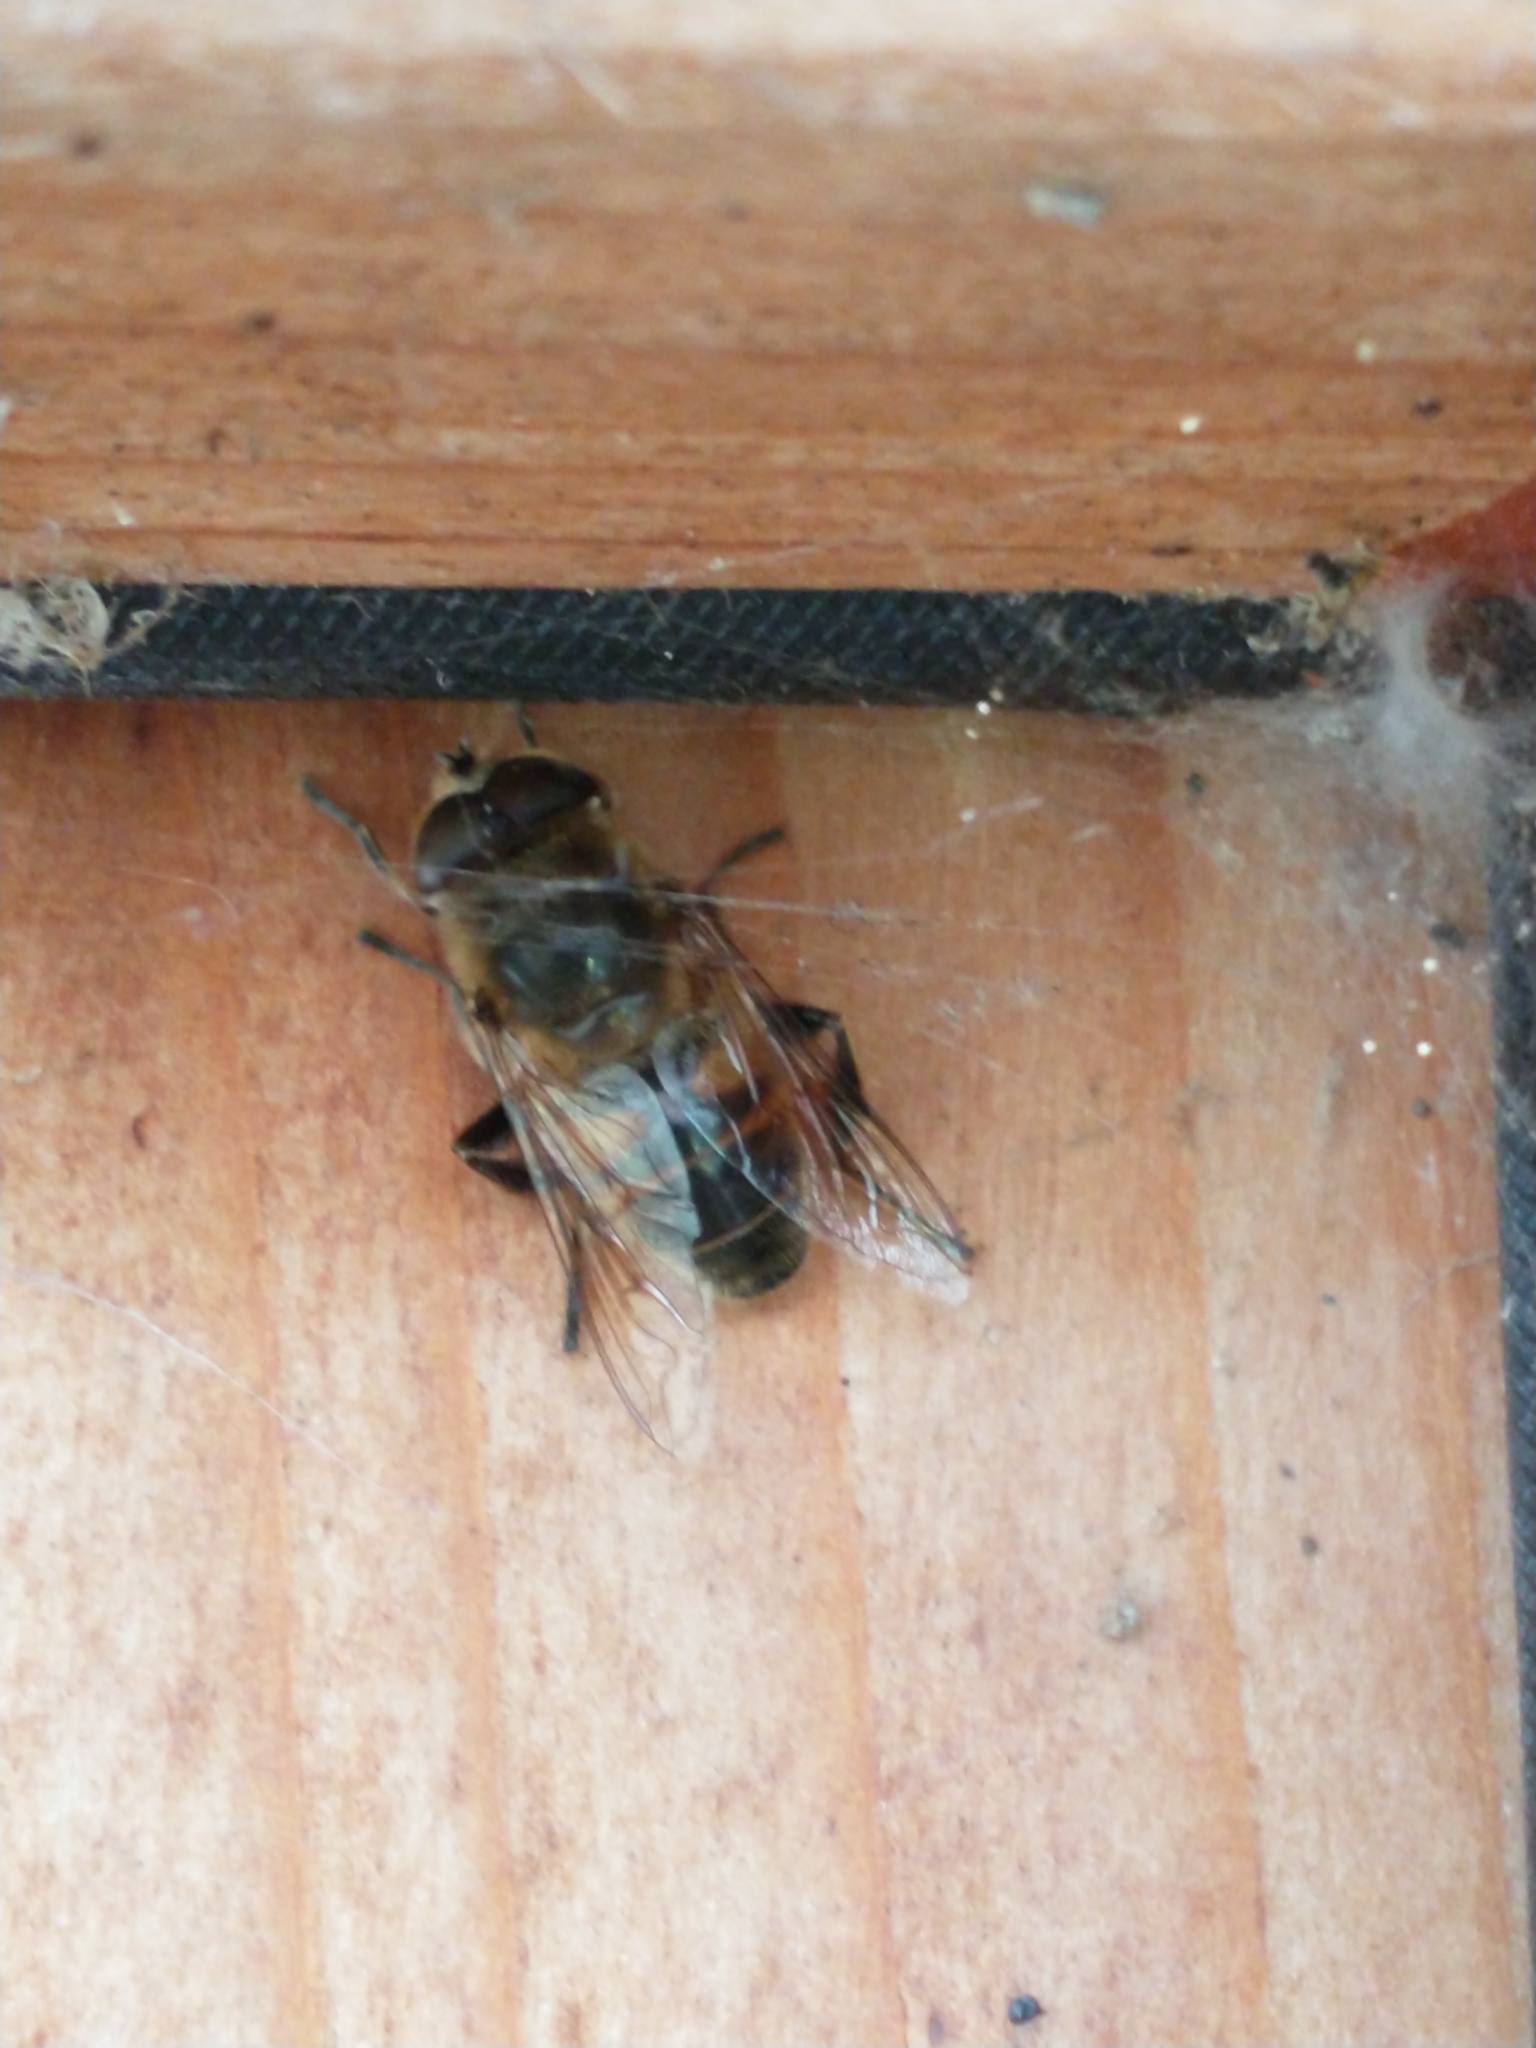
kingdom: Animalia
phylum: Arthropoda
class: Insecta
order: Diptera
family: Syrphidae
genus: Eristalis
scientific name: Eristalis tenax
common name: Drone fly
